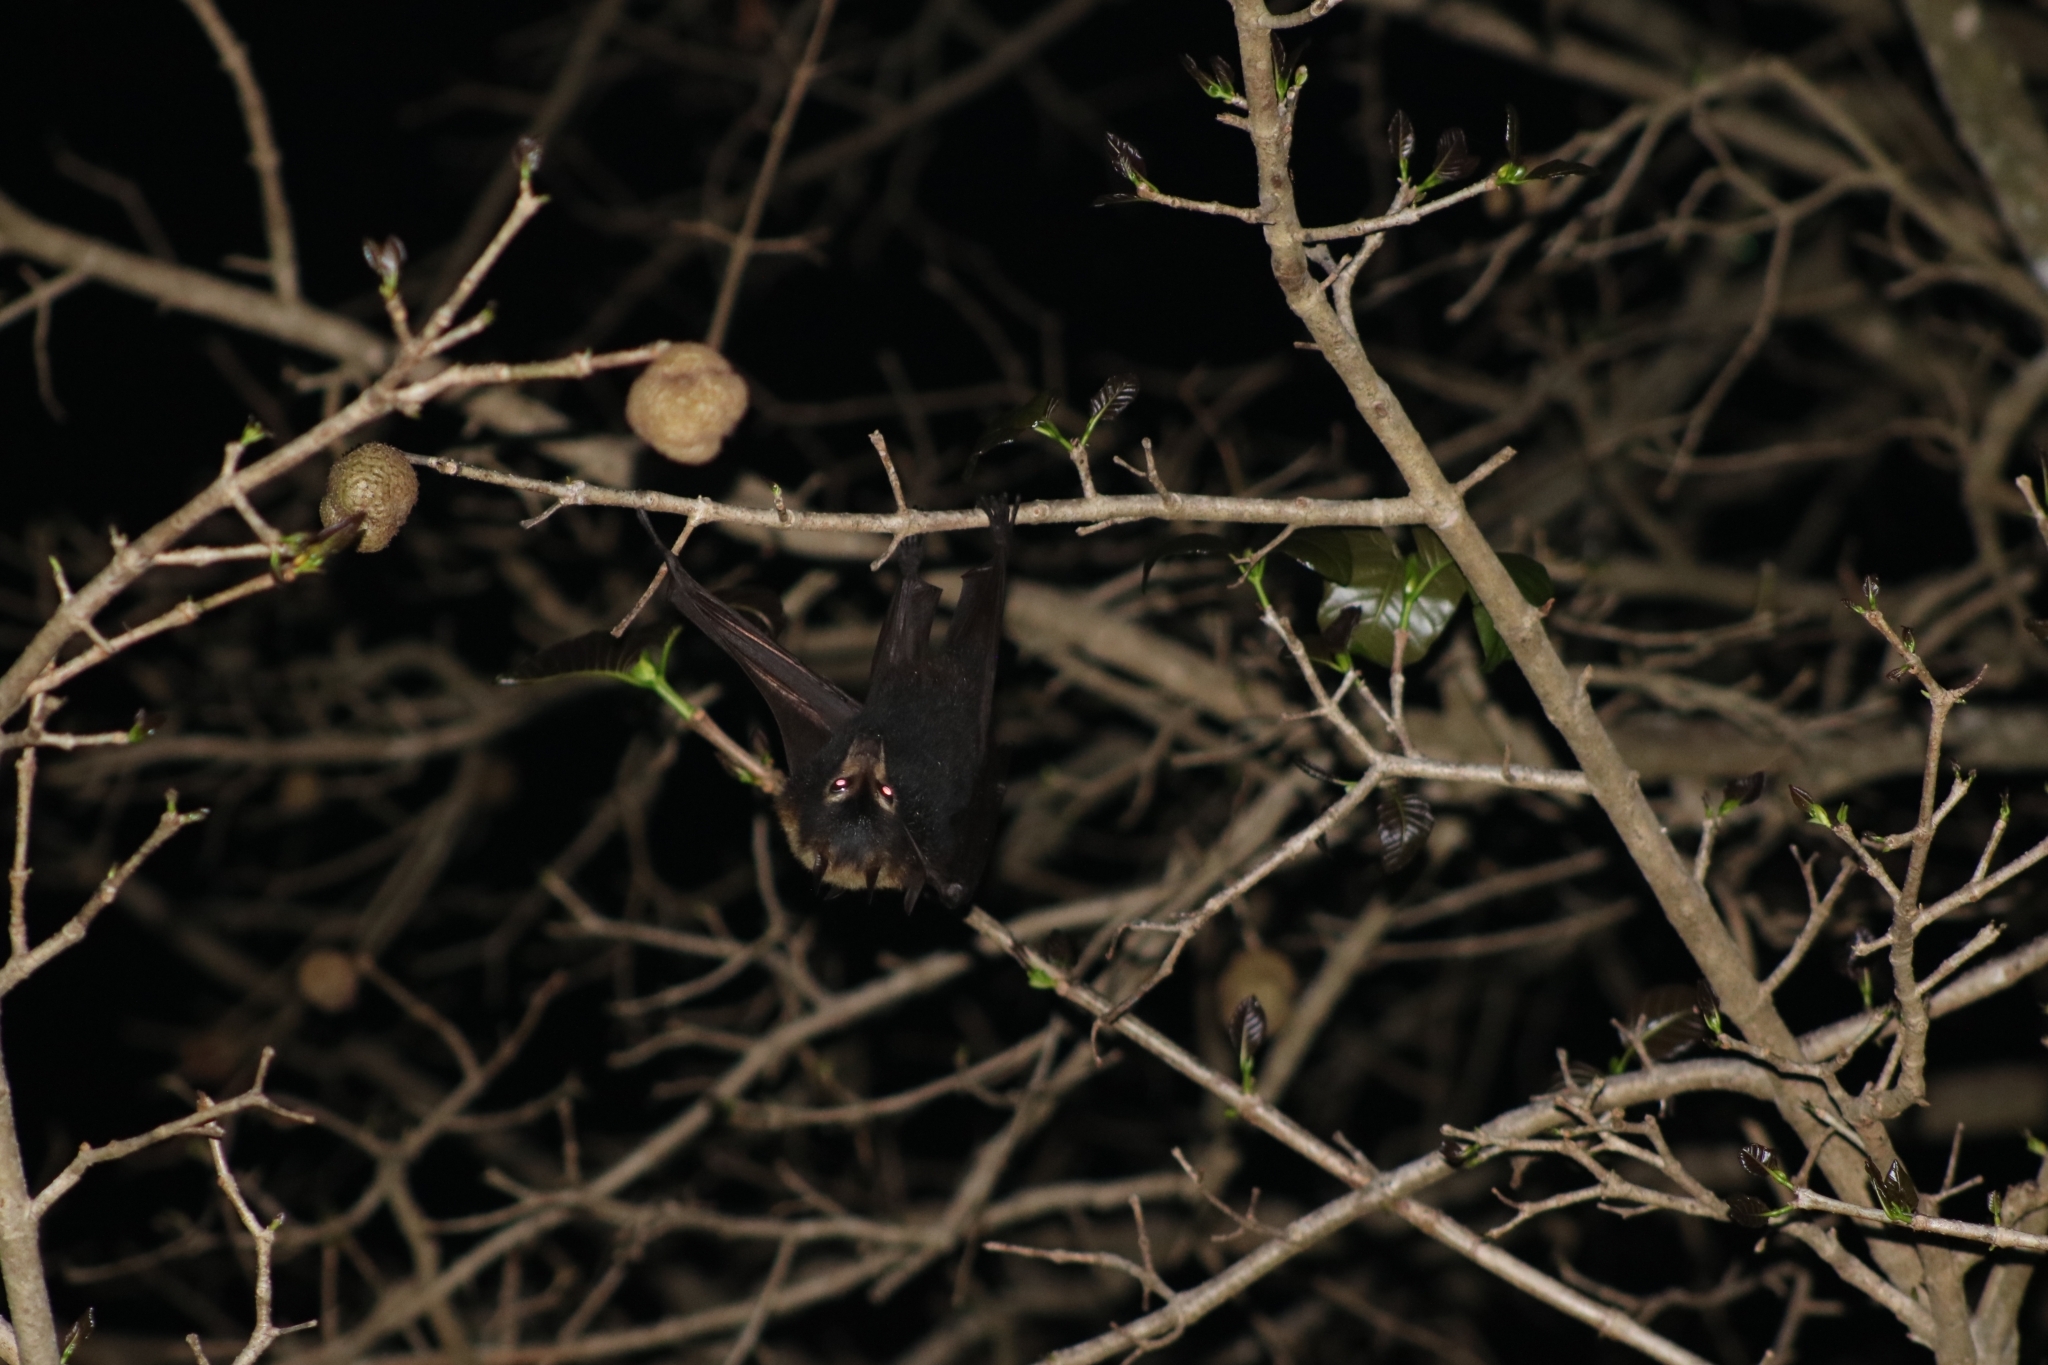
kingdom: Animalia
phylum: Chordata
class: Mammalia
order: Chiroptera
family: Pteropodidae
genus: Pteropus
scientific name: Pteropus conspicillatus
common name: Spectacled flying fox
